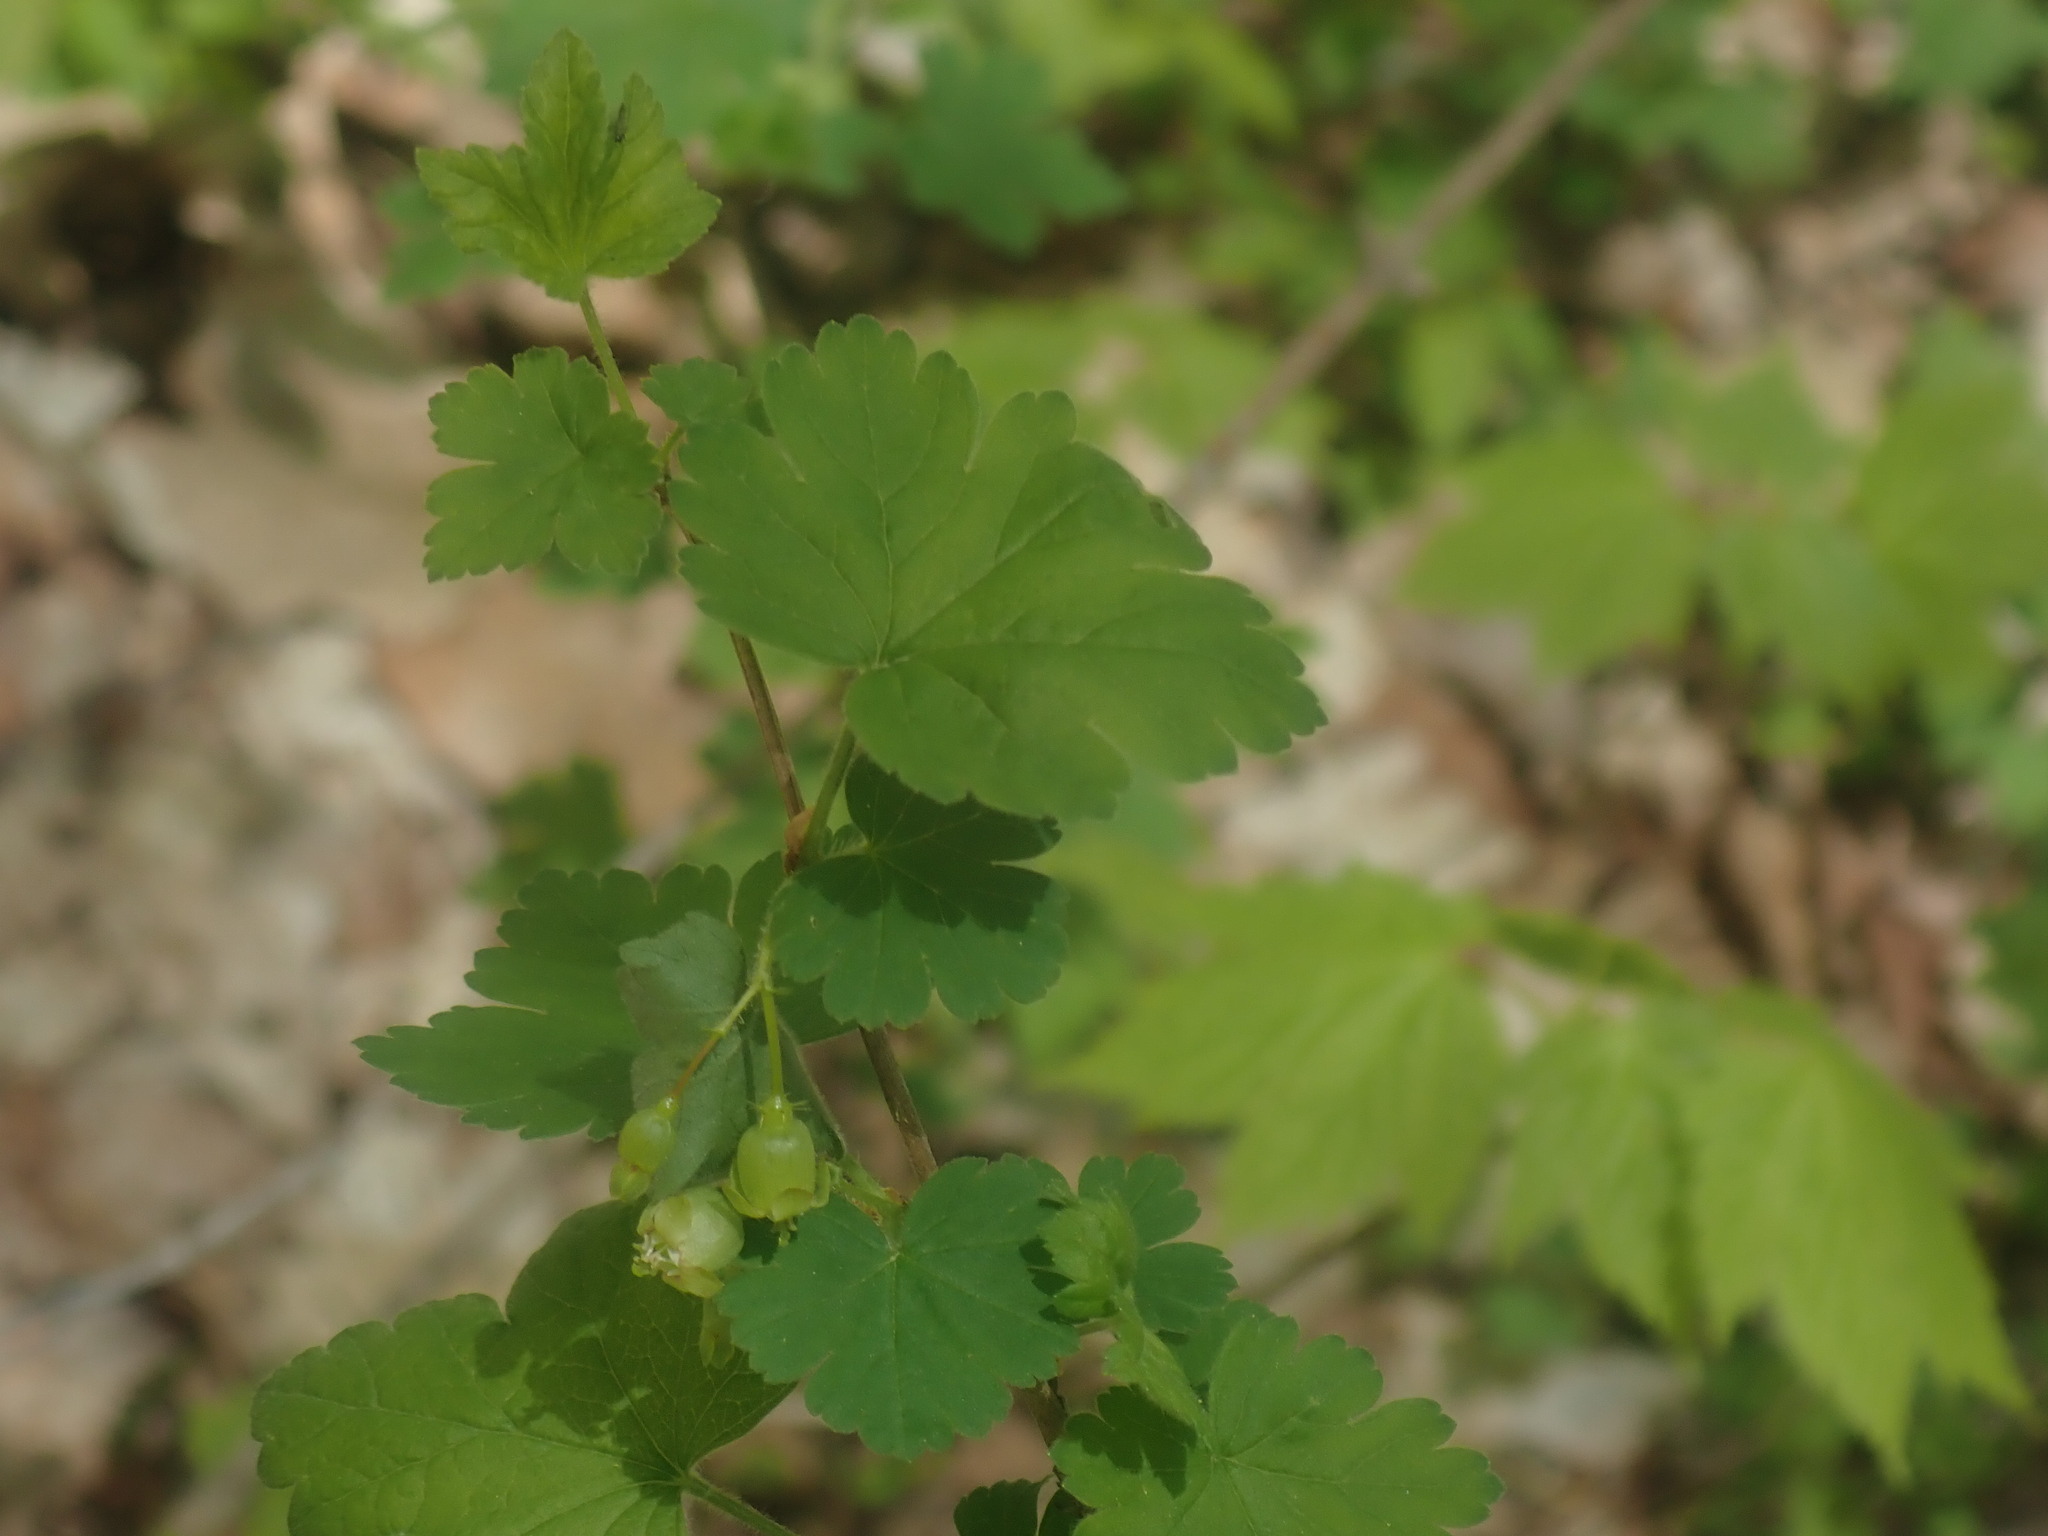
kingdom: Plantae
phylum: Tracheophyta
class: Magnoliopsida
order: Saxifragales
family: Grossulariaceae
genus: Ribes
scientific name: Ribes cynosbati
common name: American gooseberry
